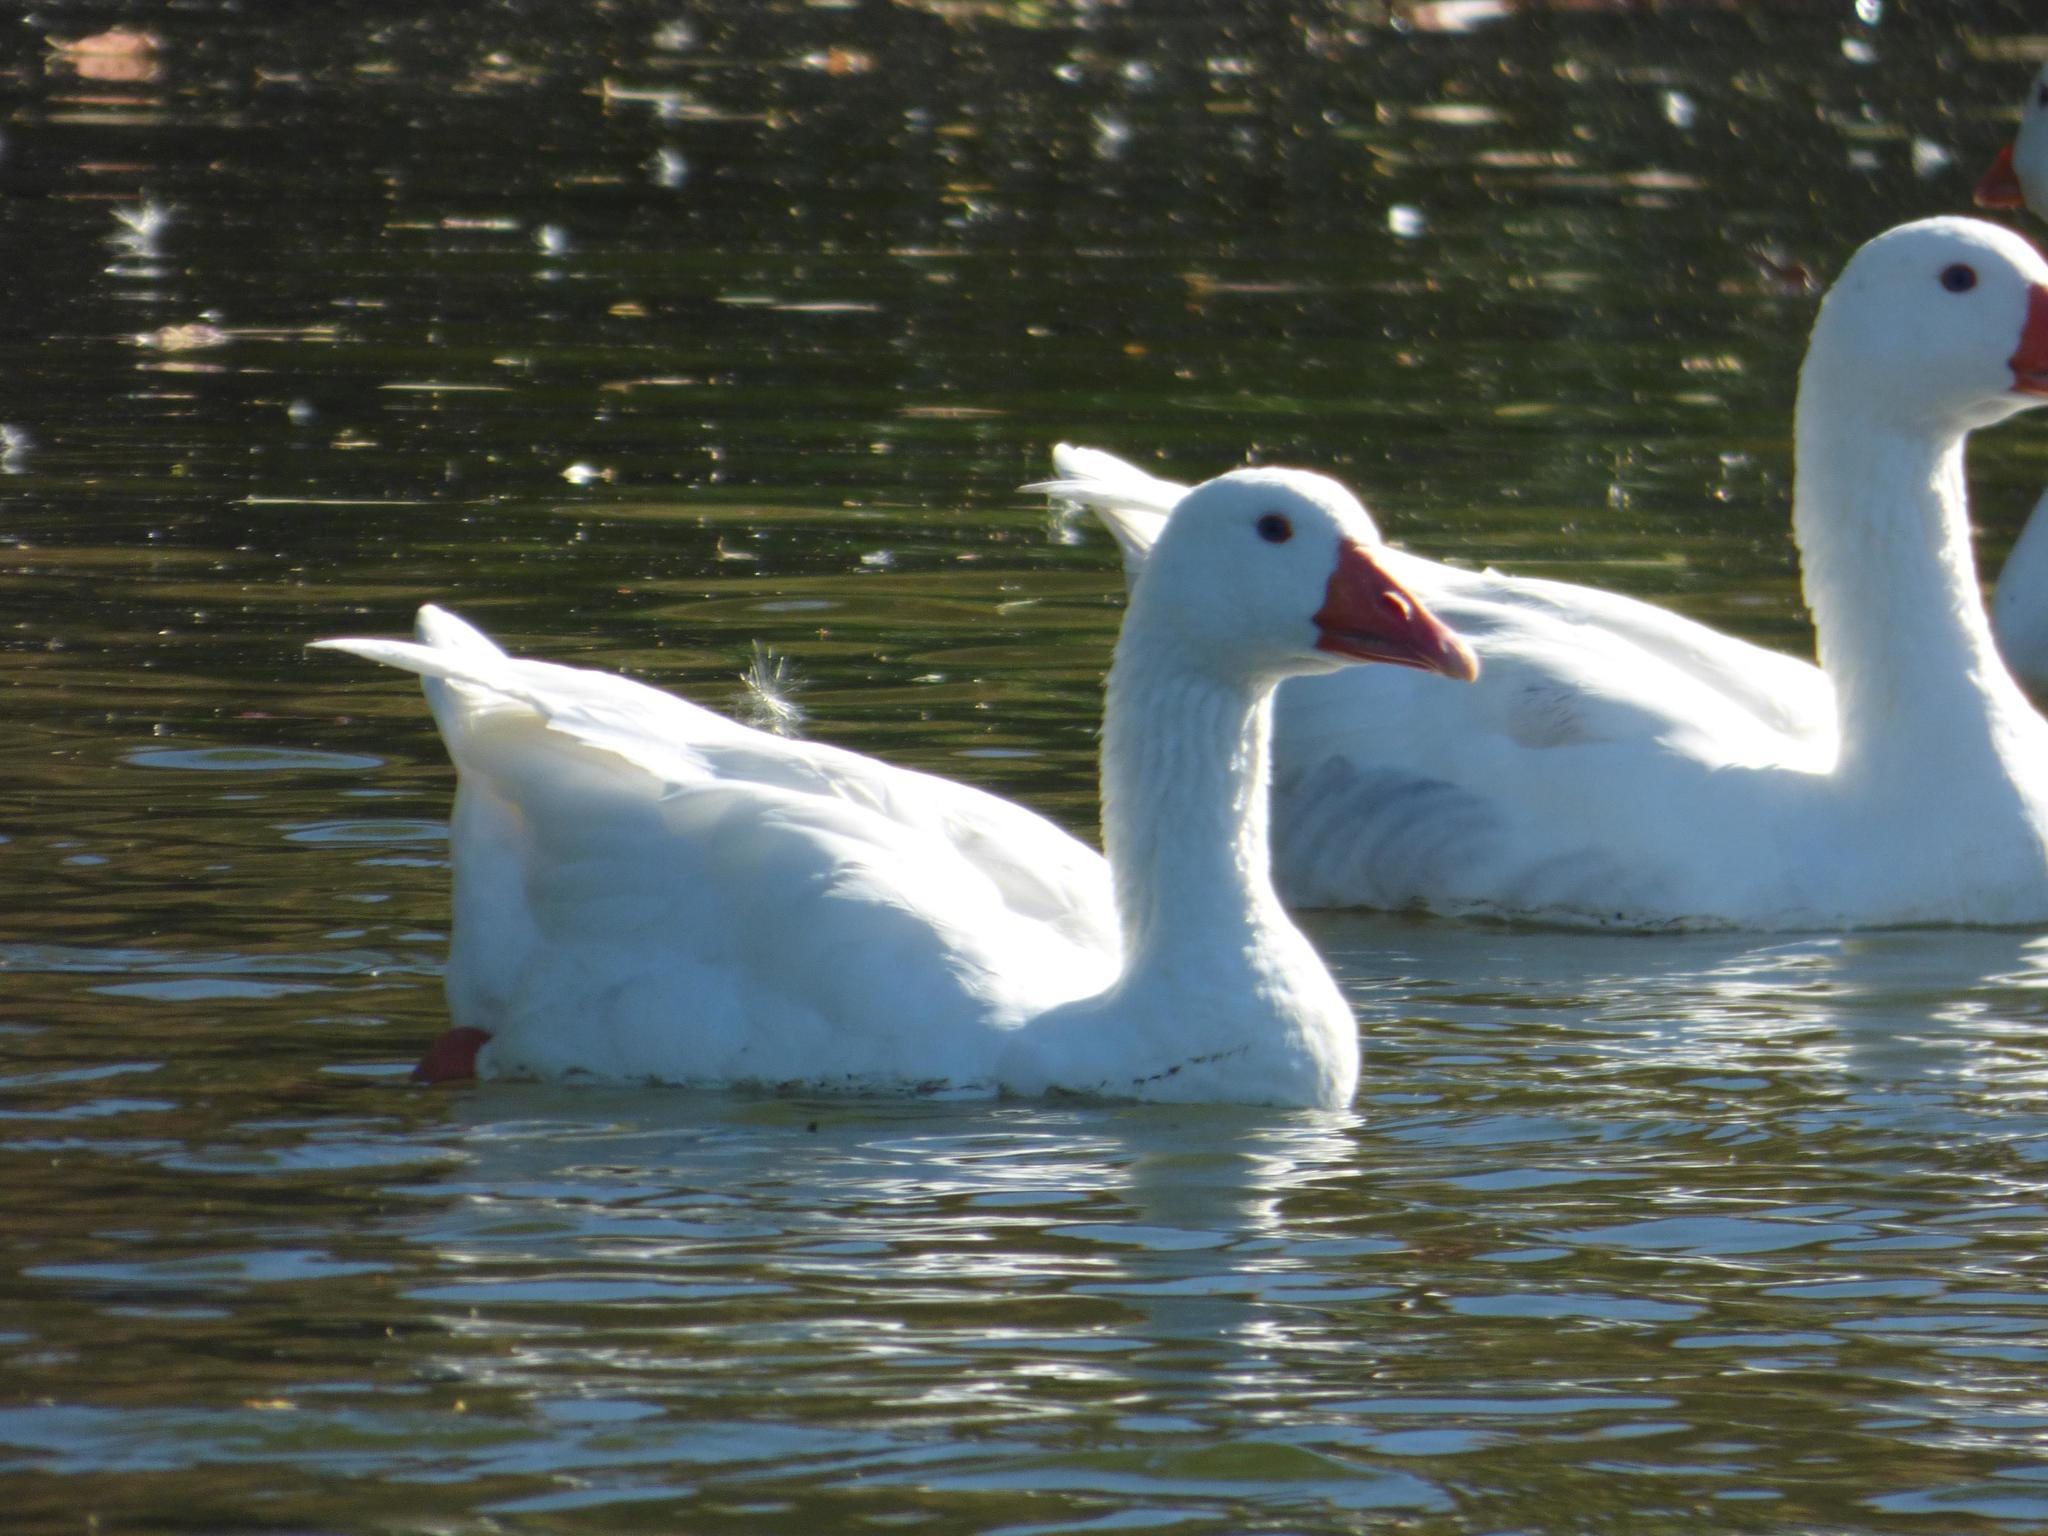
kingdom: Animalia
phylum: Chordata
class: Aves
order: Anseriformes
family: Anatidae
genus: Anser
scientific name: Anser anser
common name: Greylag goose
